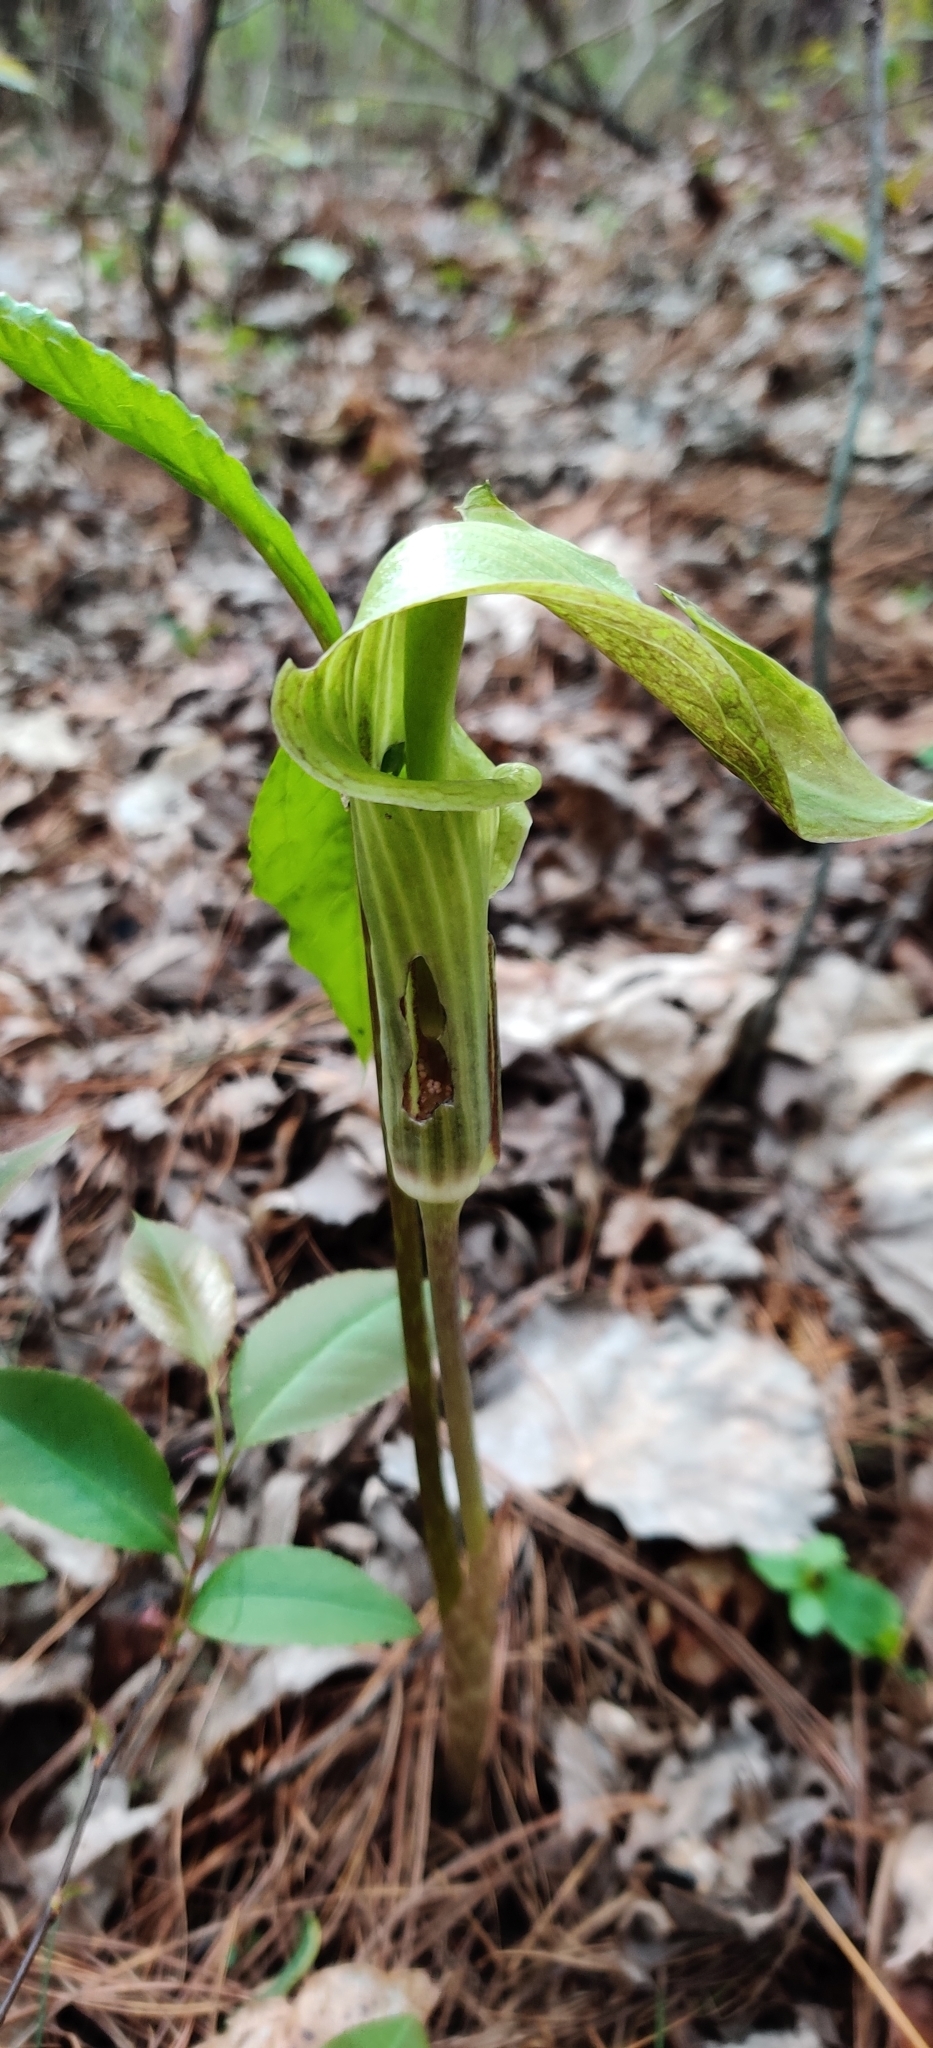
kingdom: Plantae
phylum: Tracheophyta
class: Liliopsida
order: Alismatales
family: Araceae
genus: Arisaema
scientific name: Arisaema triphyllum
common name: Jack-in-the-pulpit
